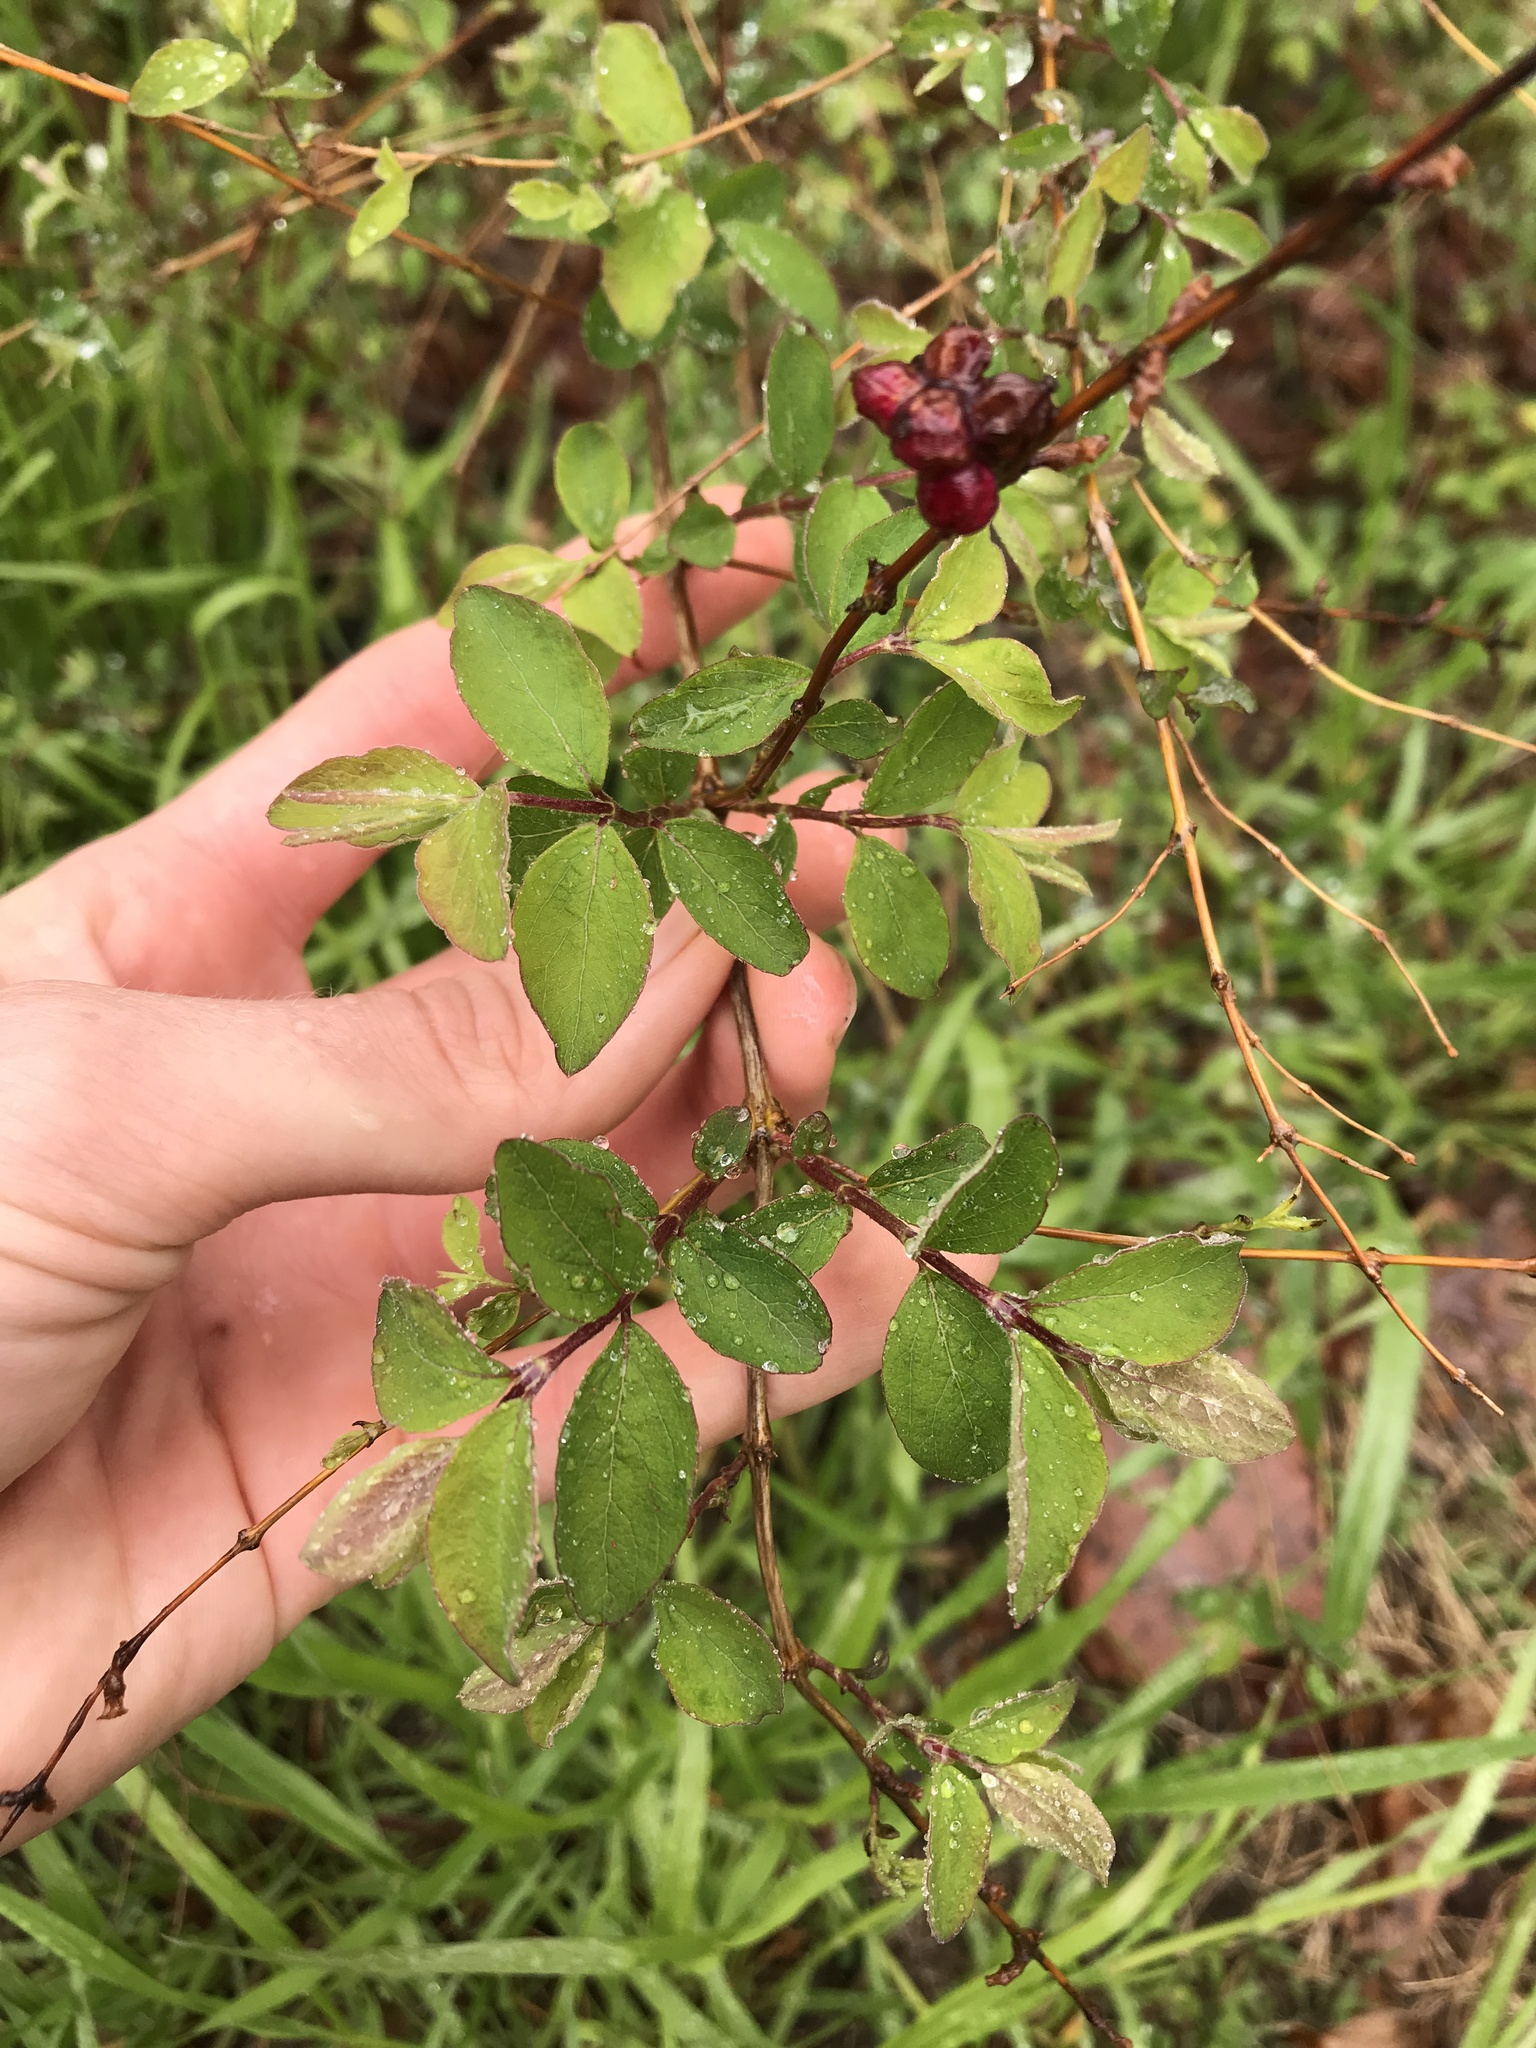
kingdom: Plantae
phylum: Tracheophyta
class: Magnoliopsida
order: Dipsacales
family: Caprifoliaceae
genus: Symphoricarpos
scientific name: Symphoricarpos orbiculatus
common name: Coralberry
